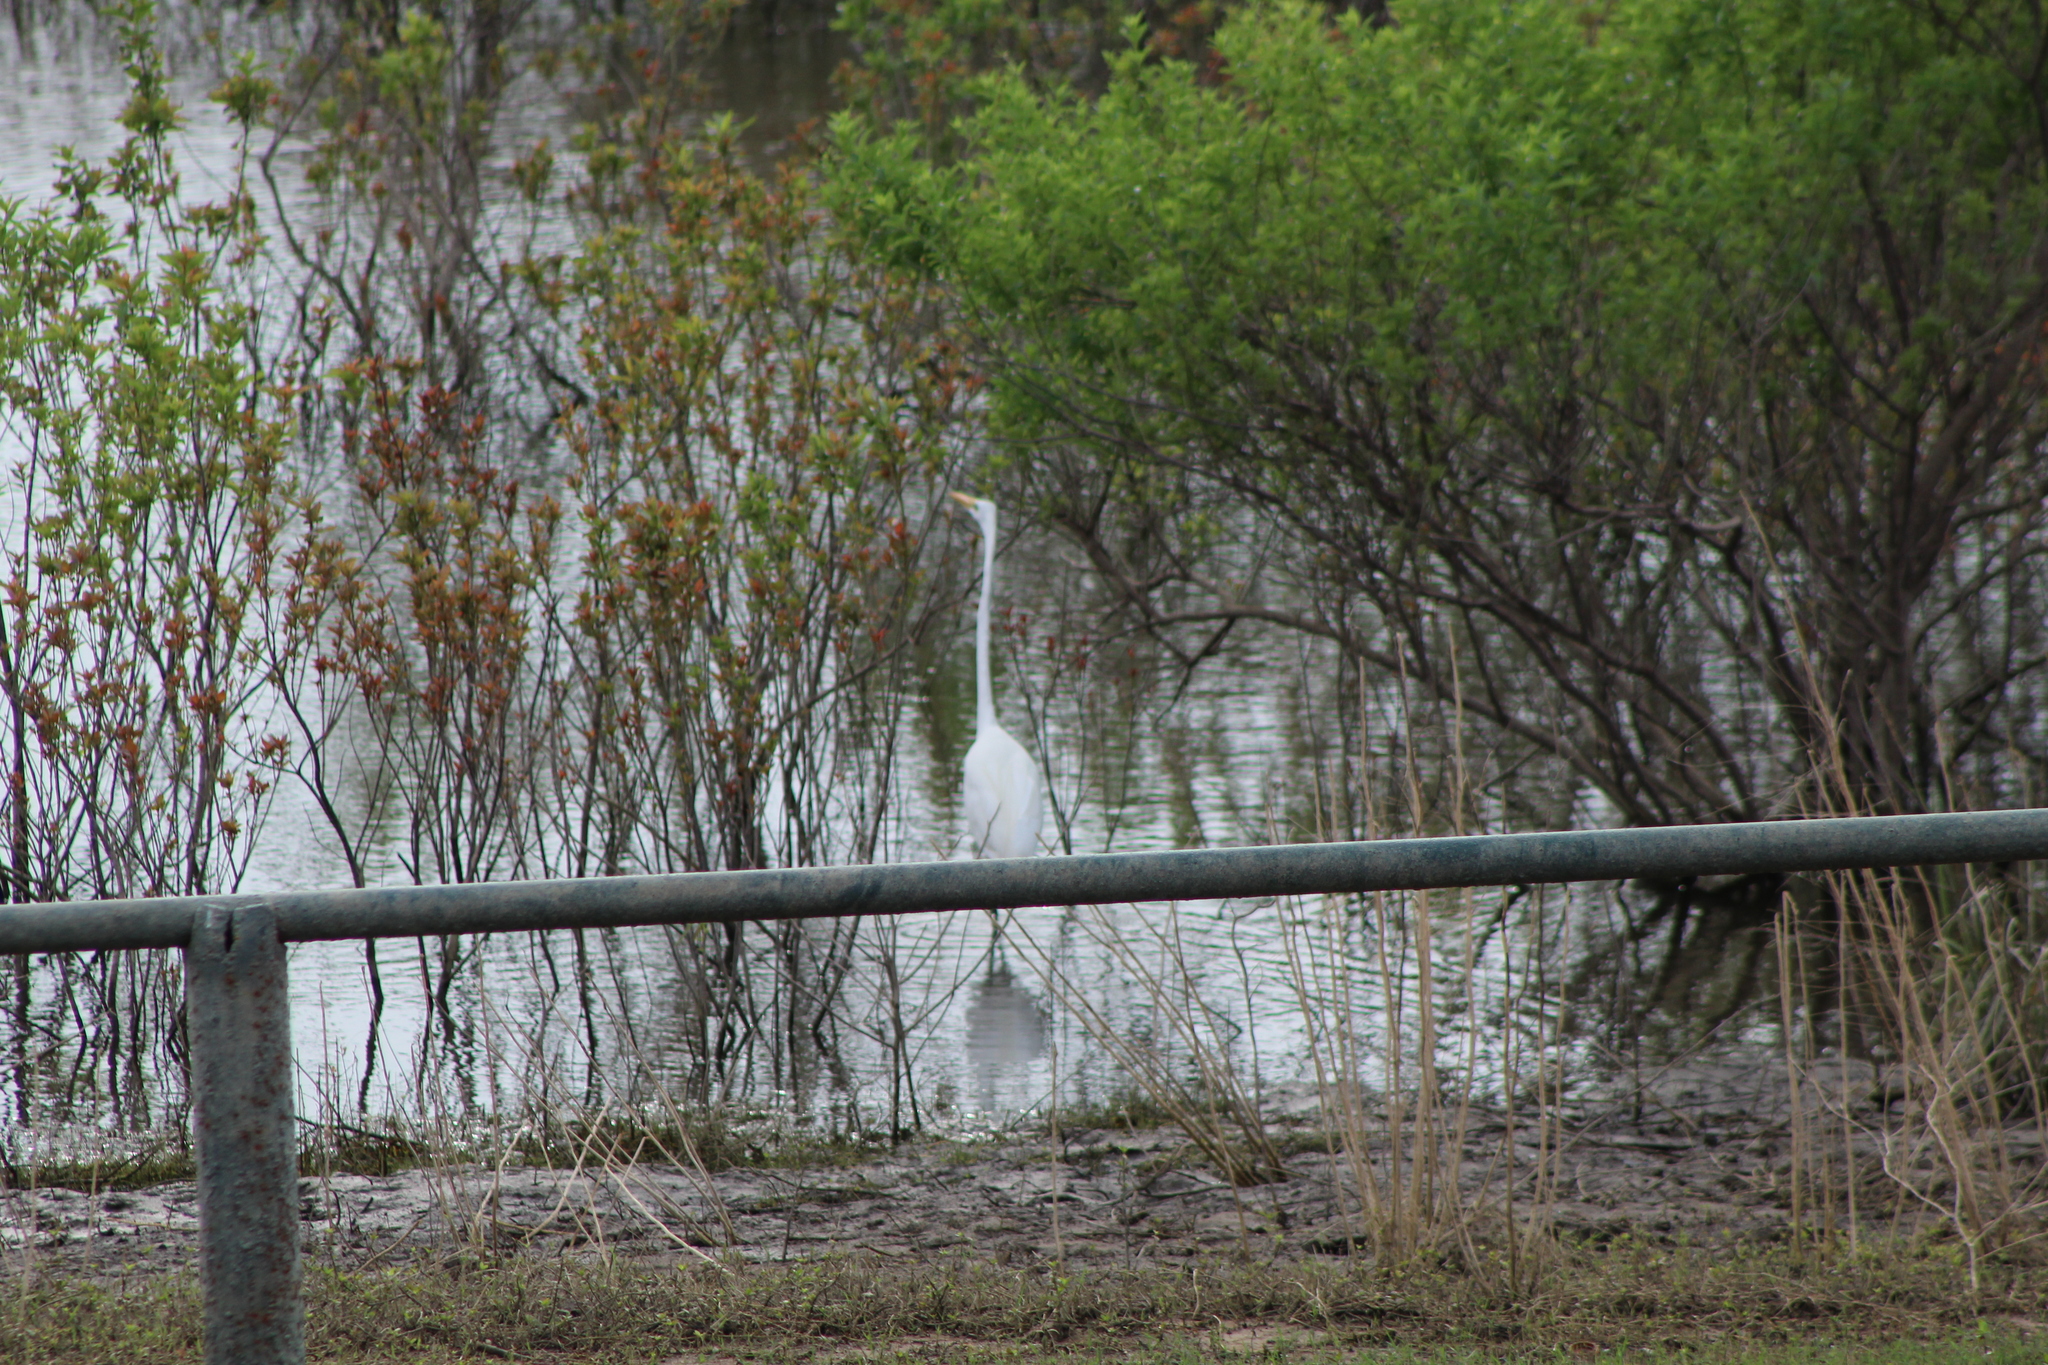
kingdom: Animalia
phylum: Chordata
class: Aves
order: Pelecaniformes
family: Ardeidae
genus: Ardea
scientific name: Ardea alba
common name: Great egret
